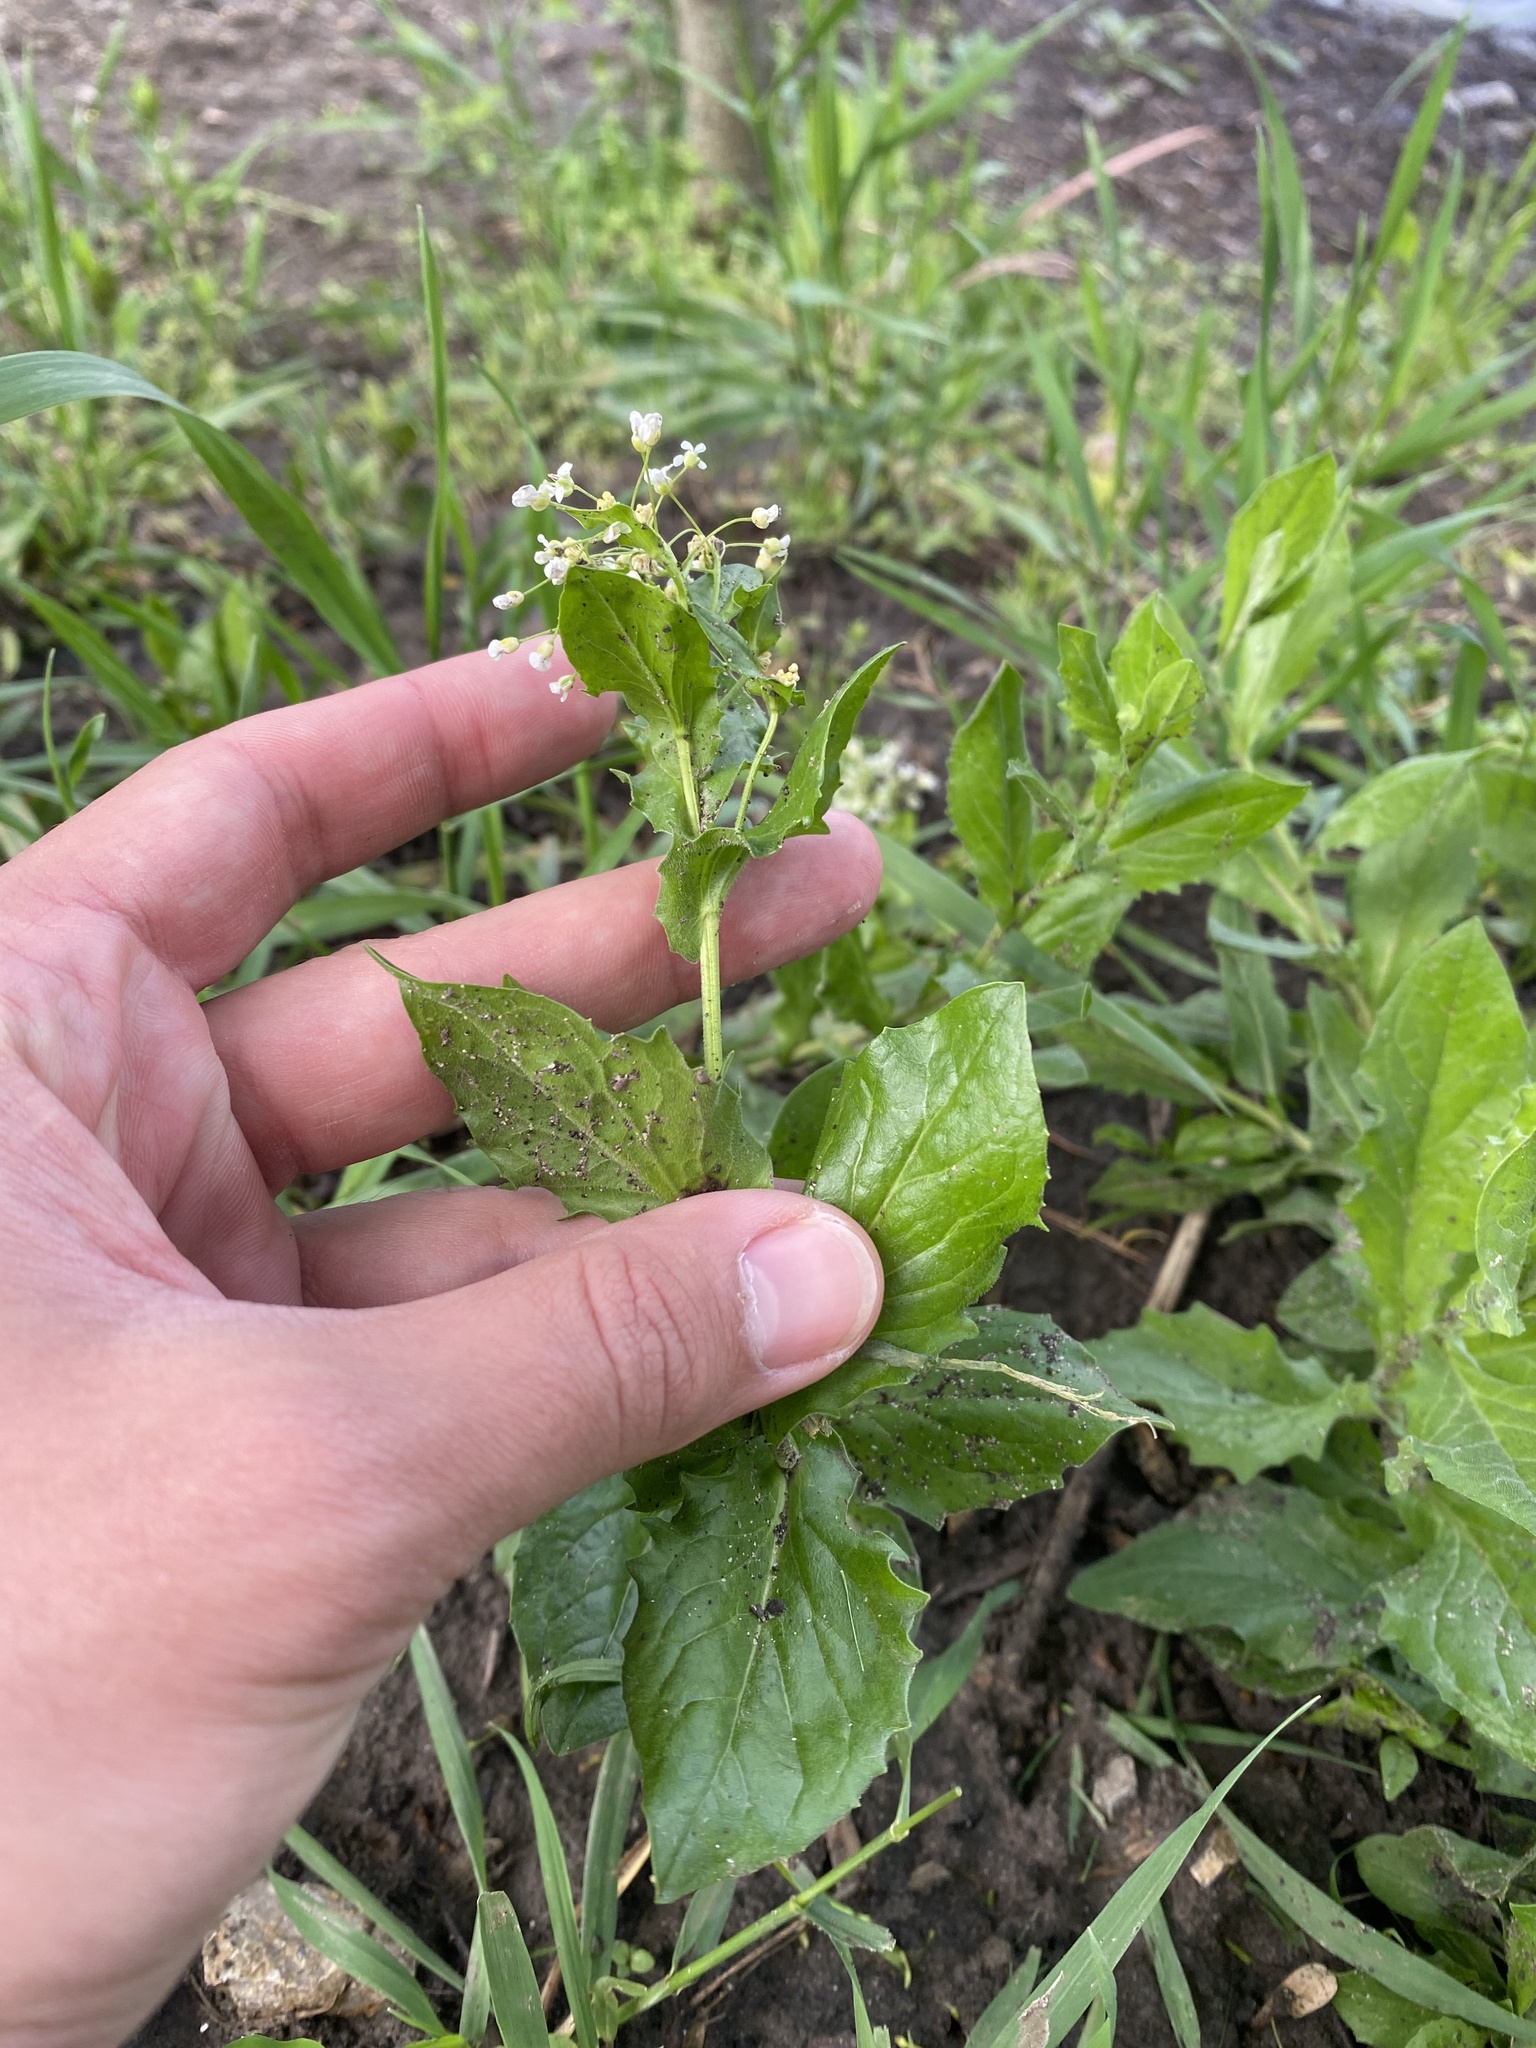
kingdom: Plantae
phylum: Tracheophyta
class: Magnoliopsida
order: Brassicales
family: Brassicaceae
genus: Lepidium
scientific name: Lepidium draba
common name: Hoary cress
